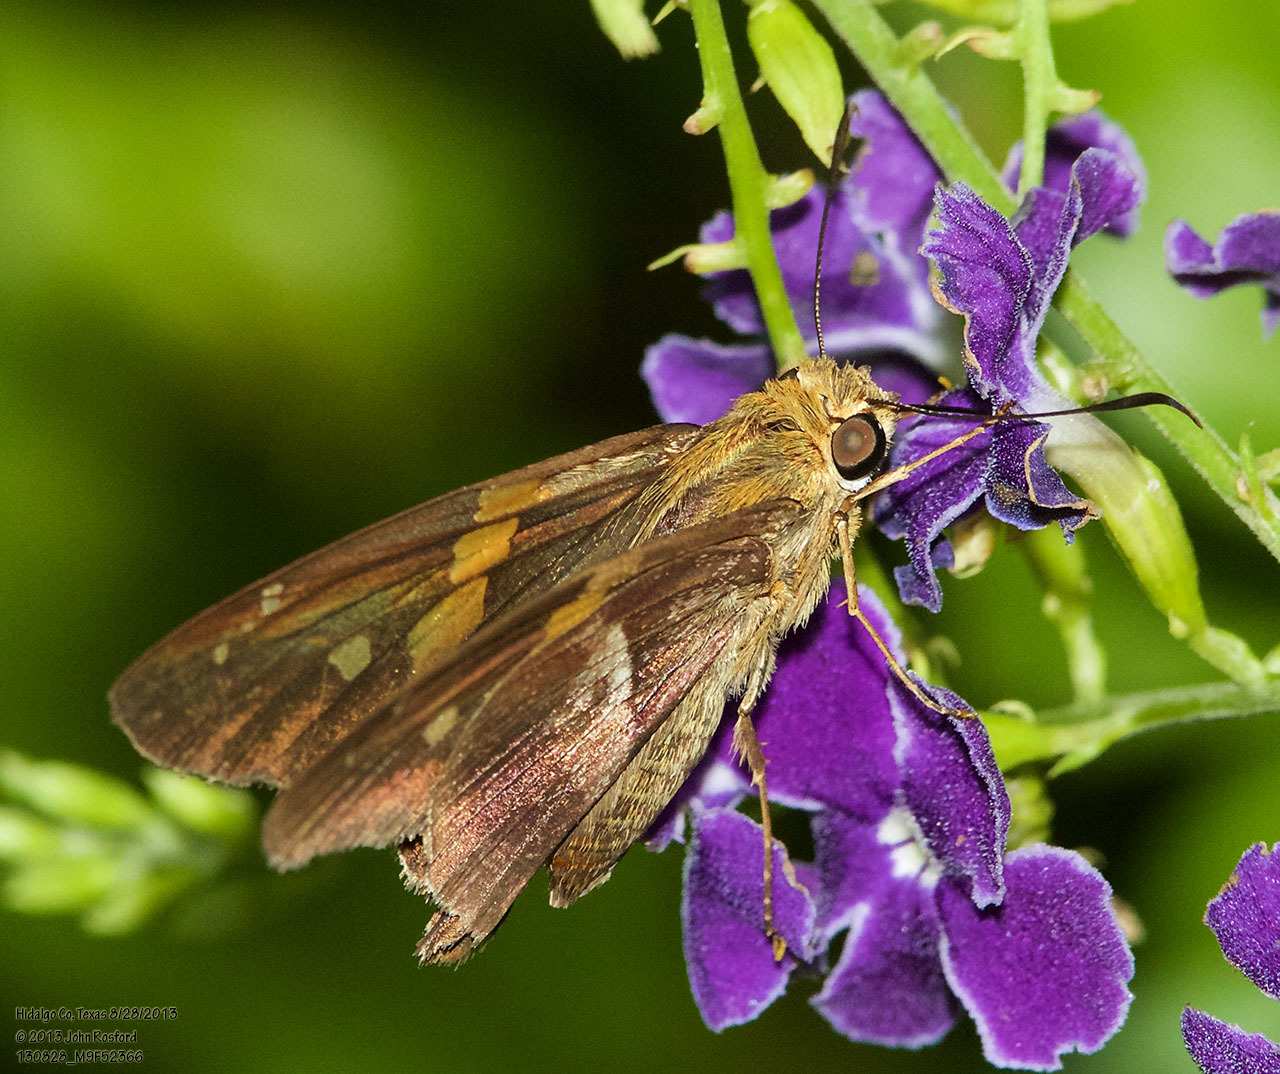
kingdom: Animalia
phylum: Arthropoda
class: Insecta
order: Lepidoptera
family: Hesperiidae
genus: Aguna
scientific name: Aguna asander
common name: Gold-spotted aguna
